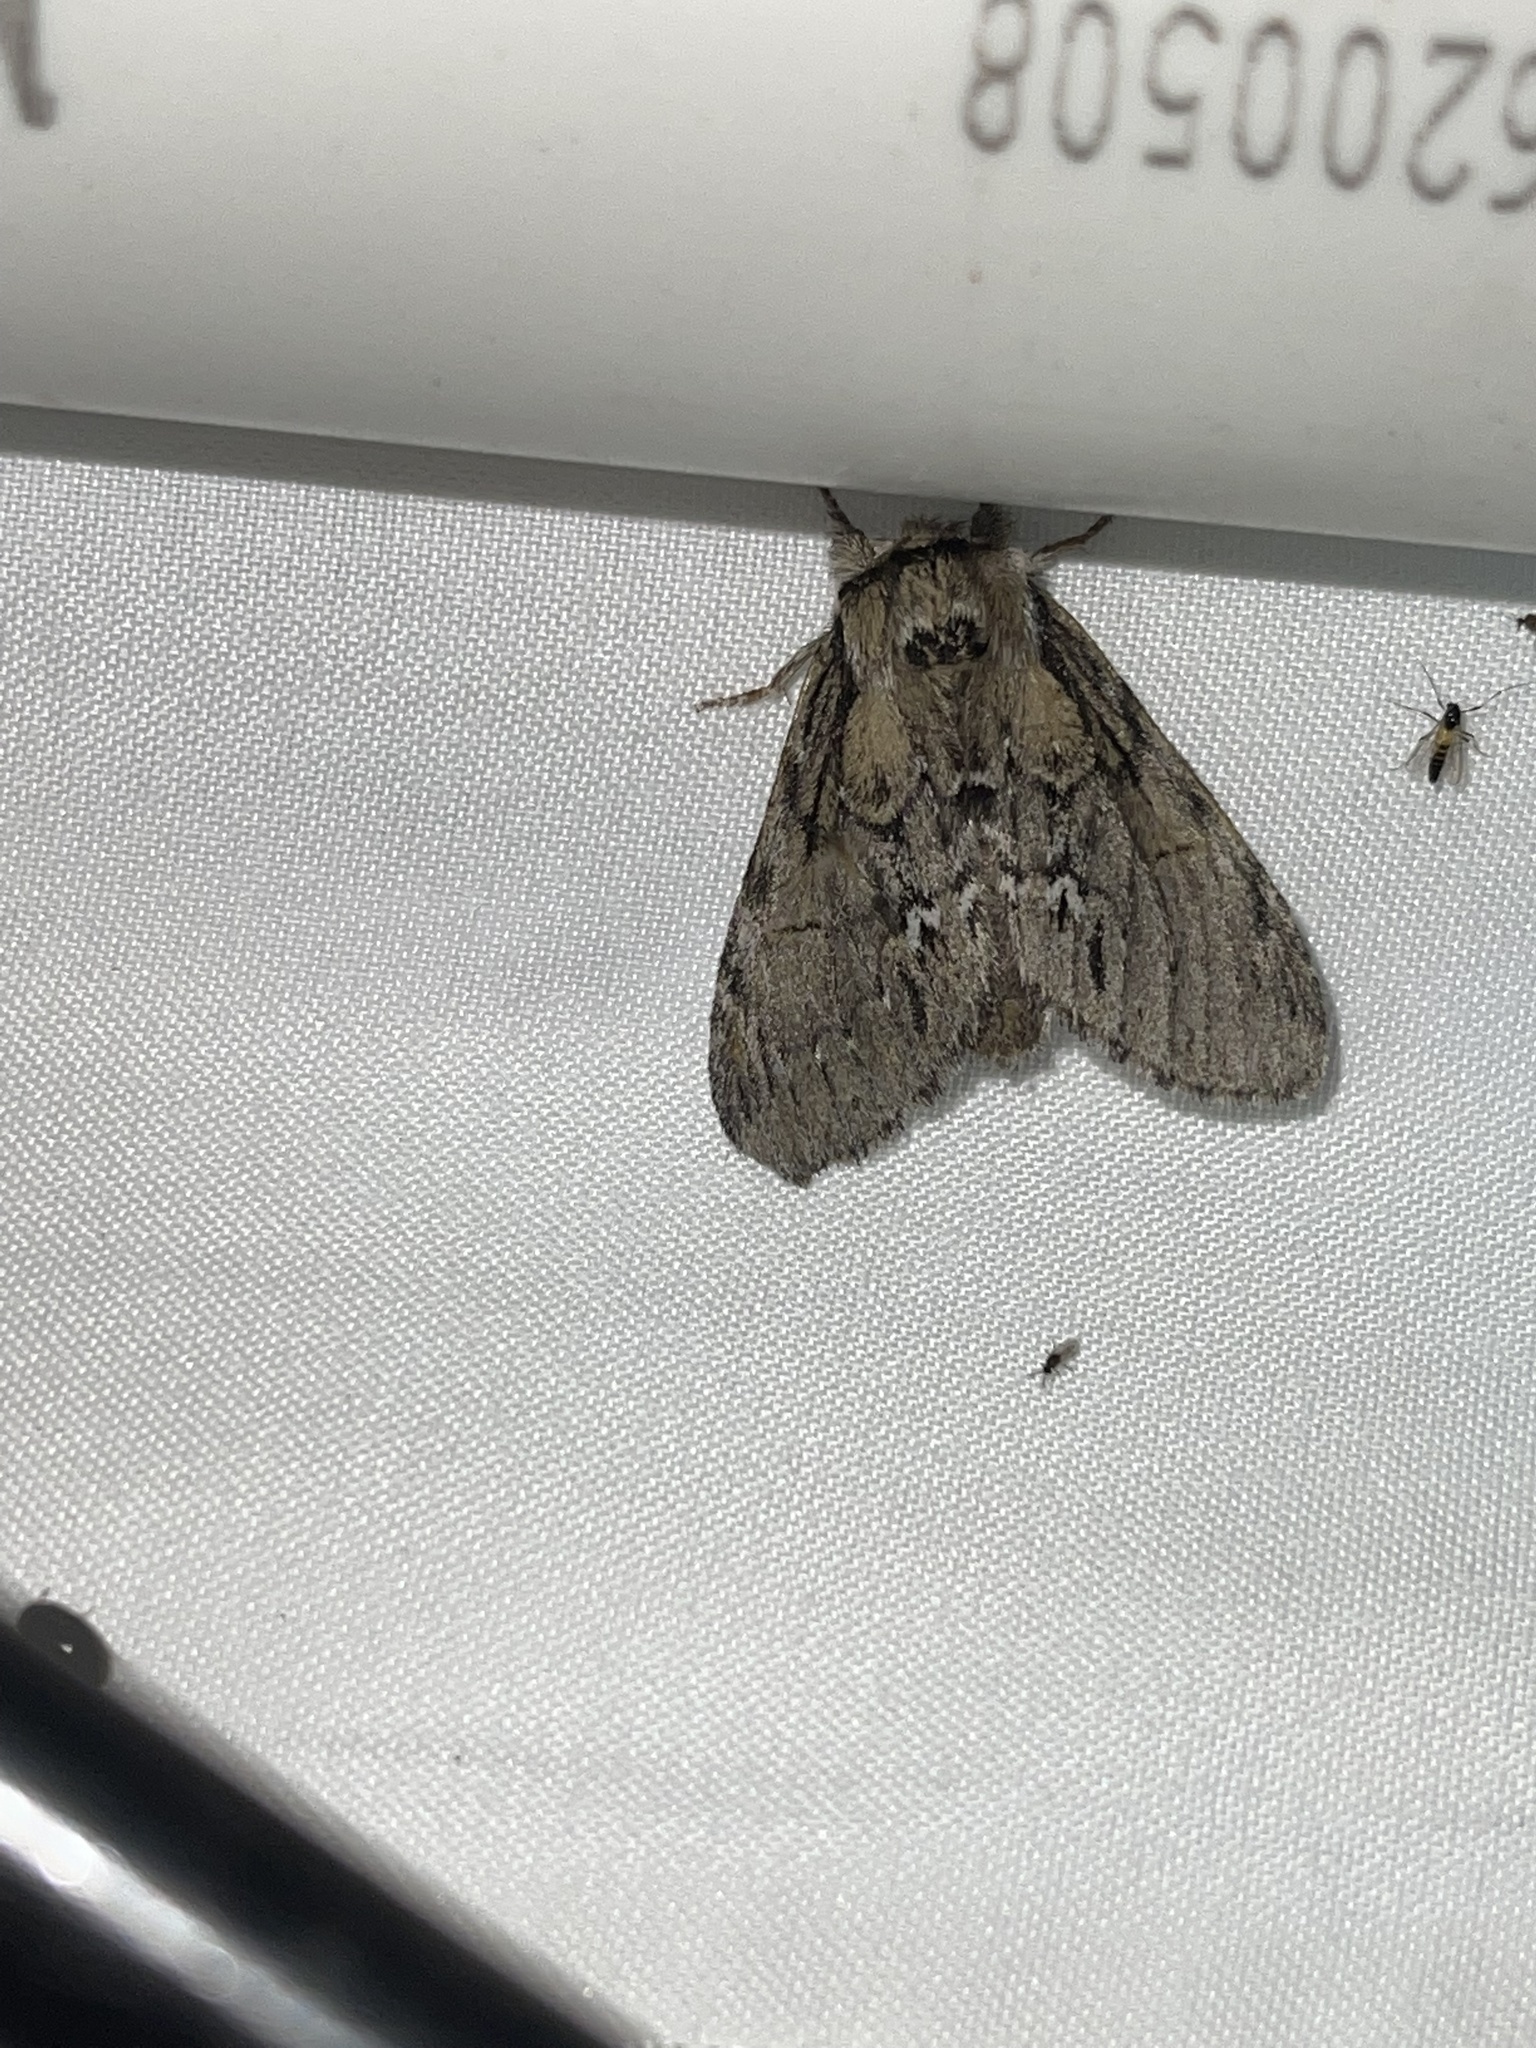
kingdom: Animalia
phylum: Arthropoda
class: Insecta
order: Lepidoptera
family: Notodontidae
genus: Paraeschra
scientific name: Paraeschra georgica
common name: Georgian prominent
